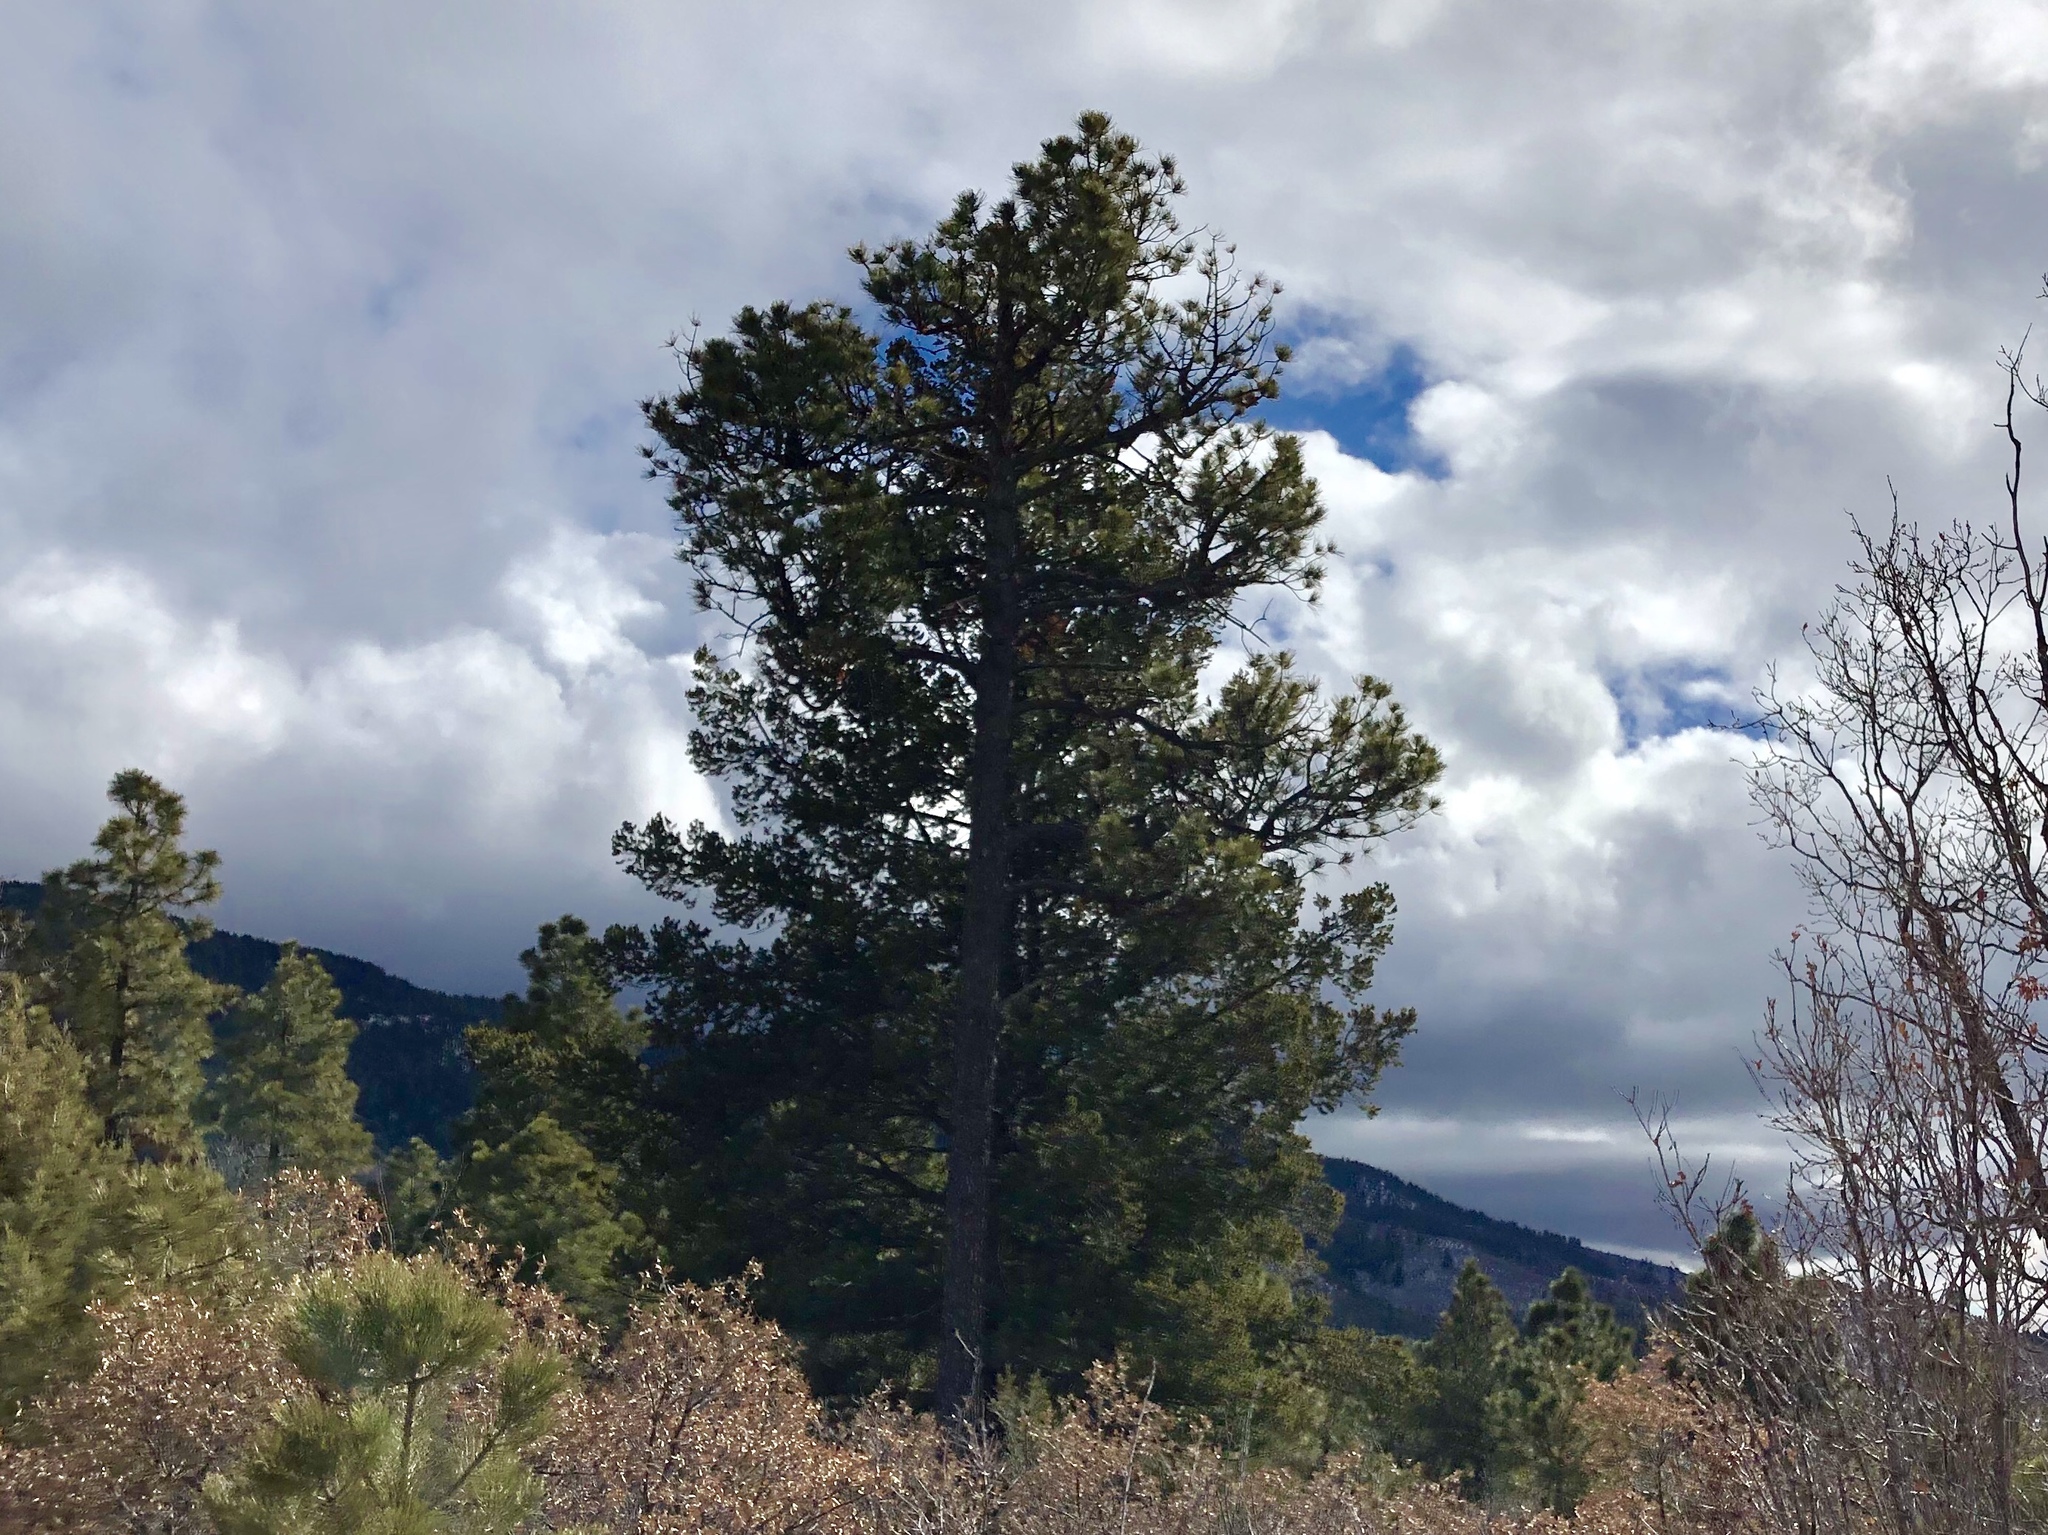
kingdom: Plantae
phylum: Tracheophyta
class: Pinopsida
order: Pinales
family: Pinaceae
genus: Pinus
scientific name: Pinus ponderosa
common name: Western yellow-pine
